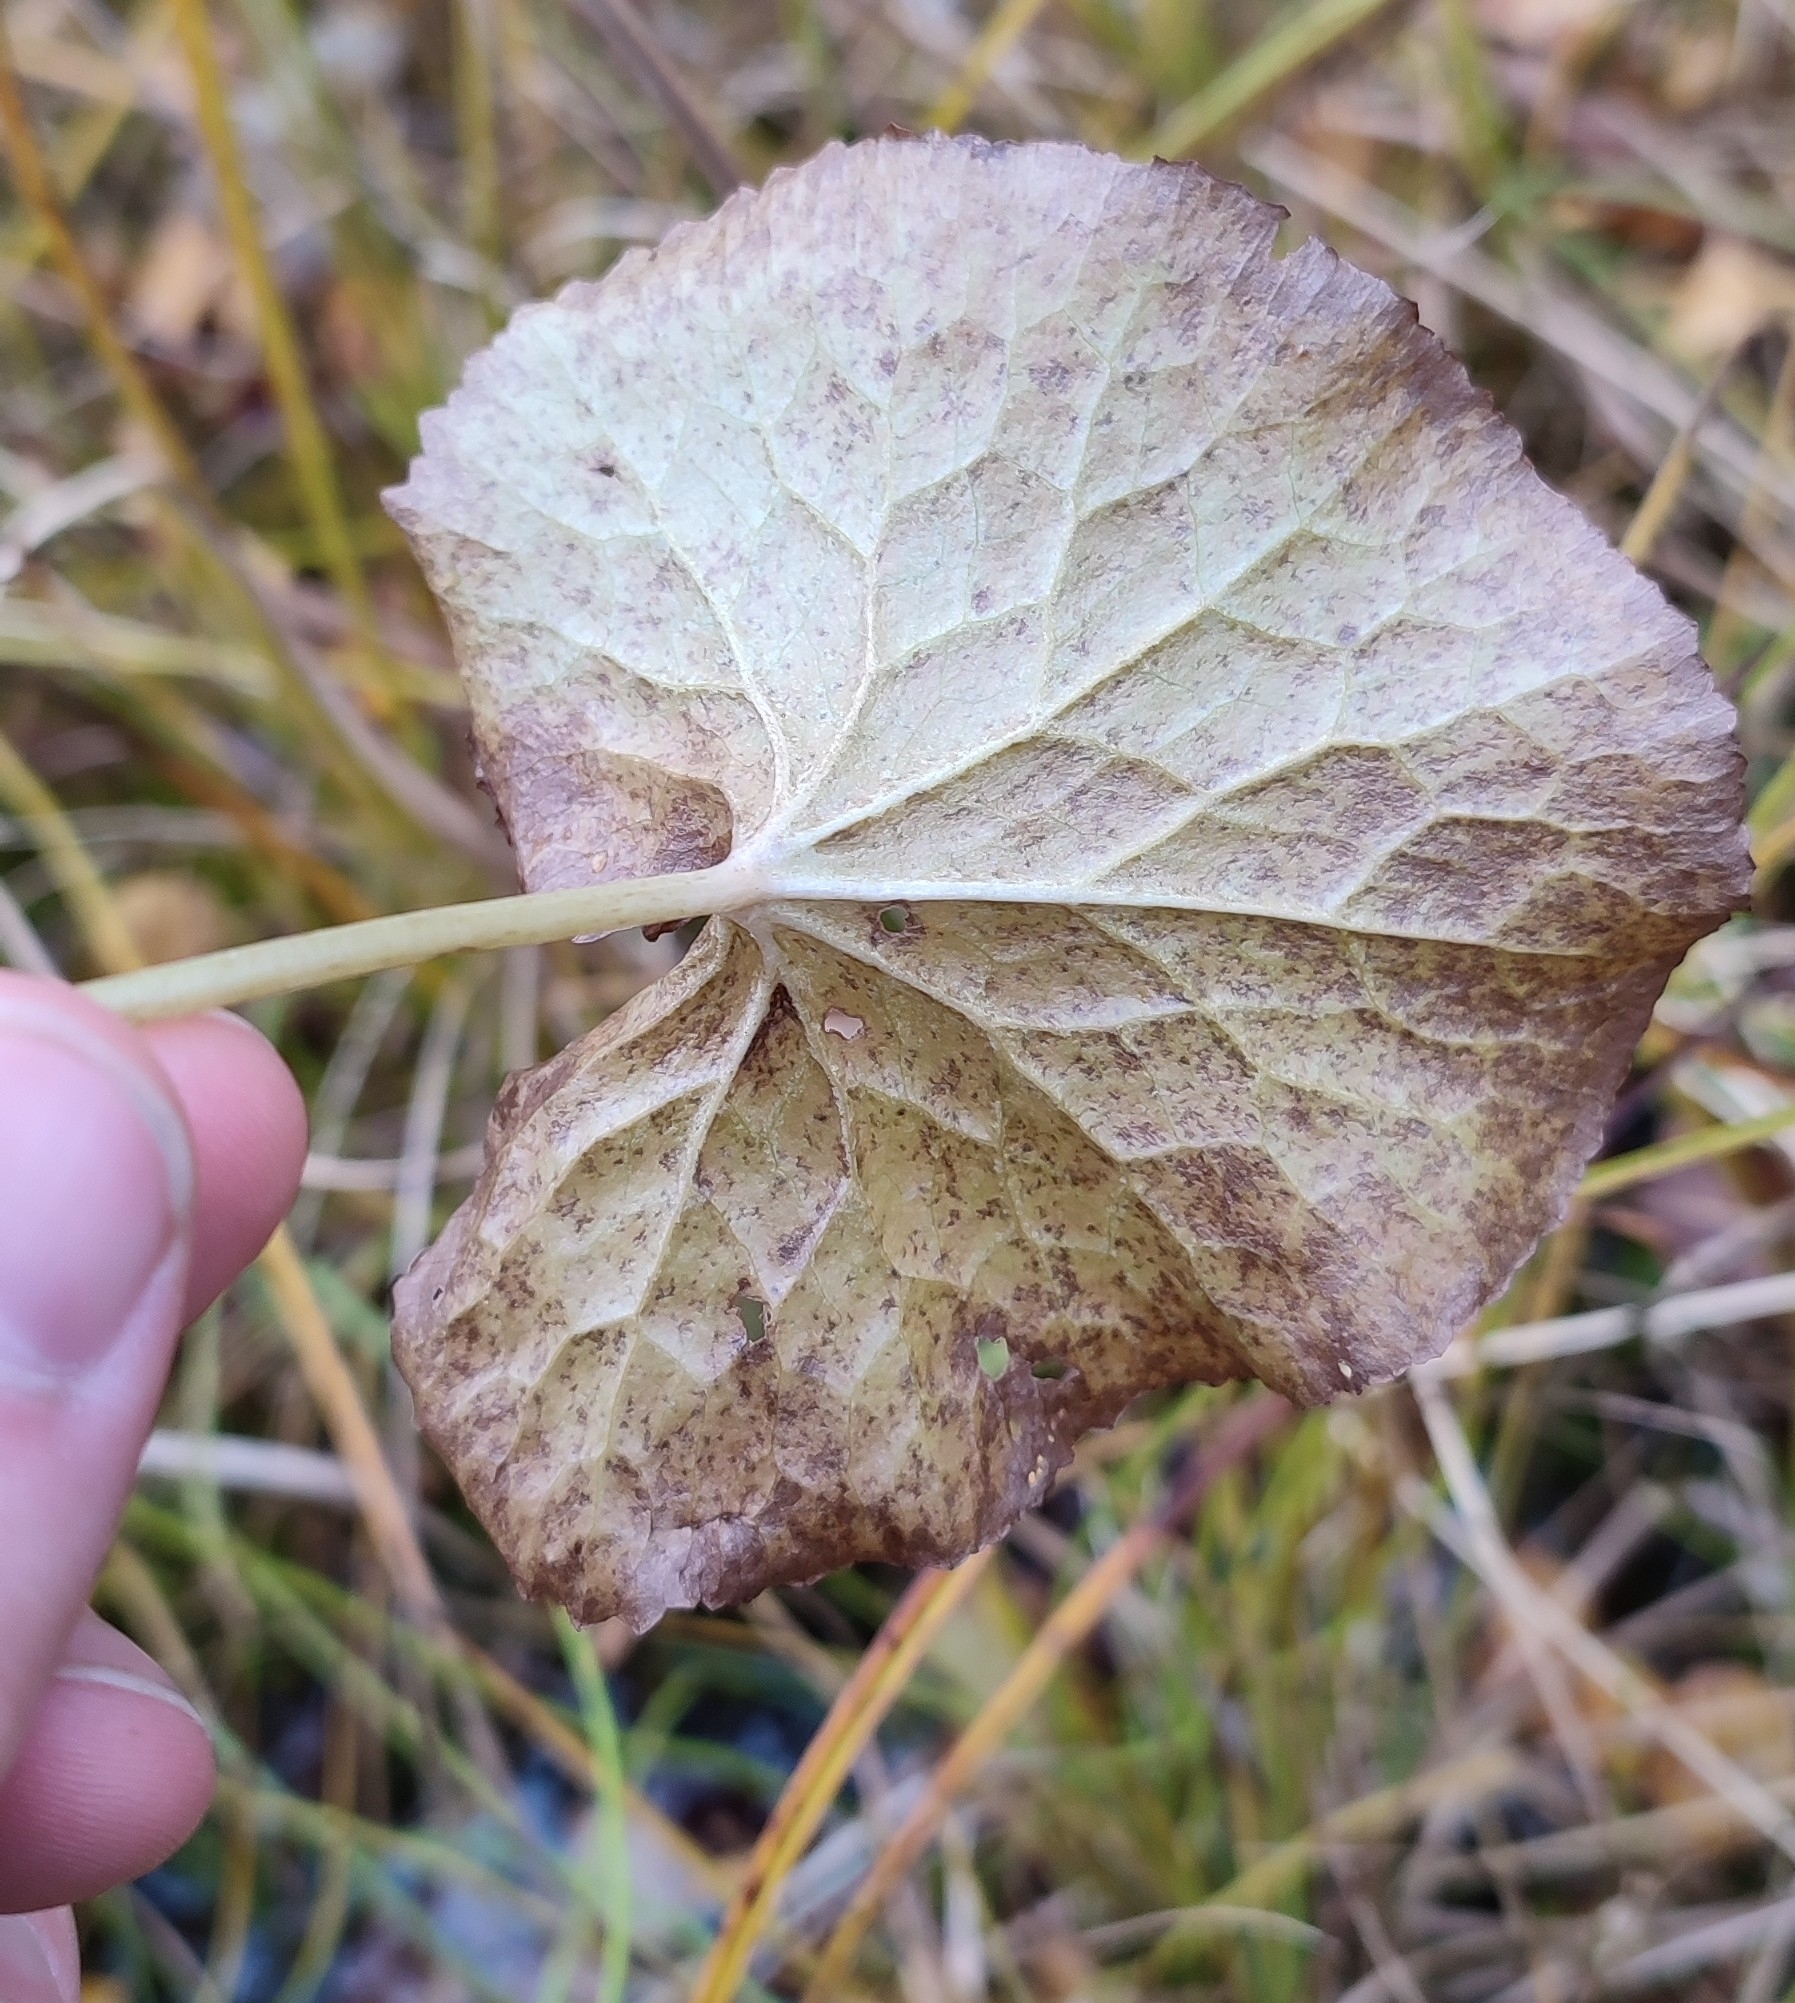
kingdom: Plantae
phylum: Tracheophyta
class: Magnoliopsida
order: Ranunculales
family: Ranunculaceae
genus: Caltha
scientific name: Caltha palustris
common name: Marsh marigold
